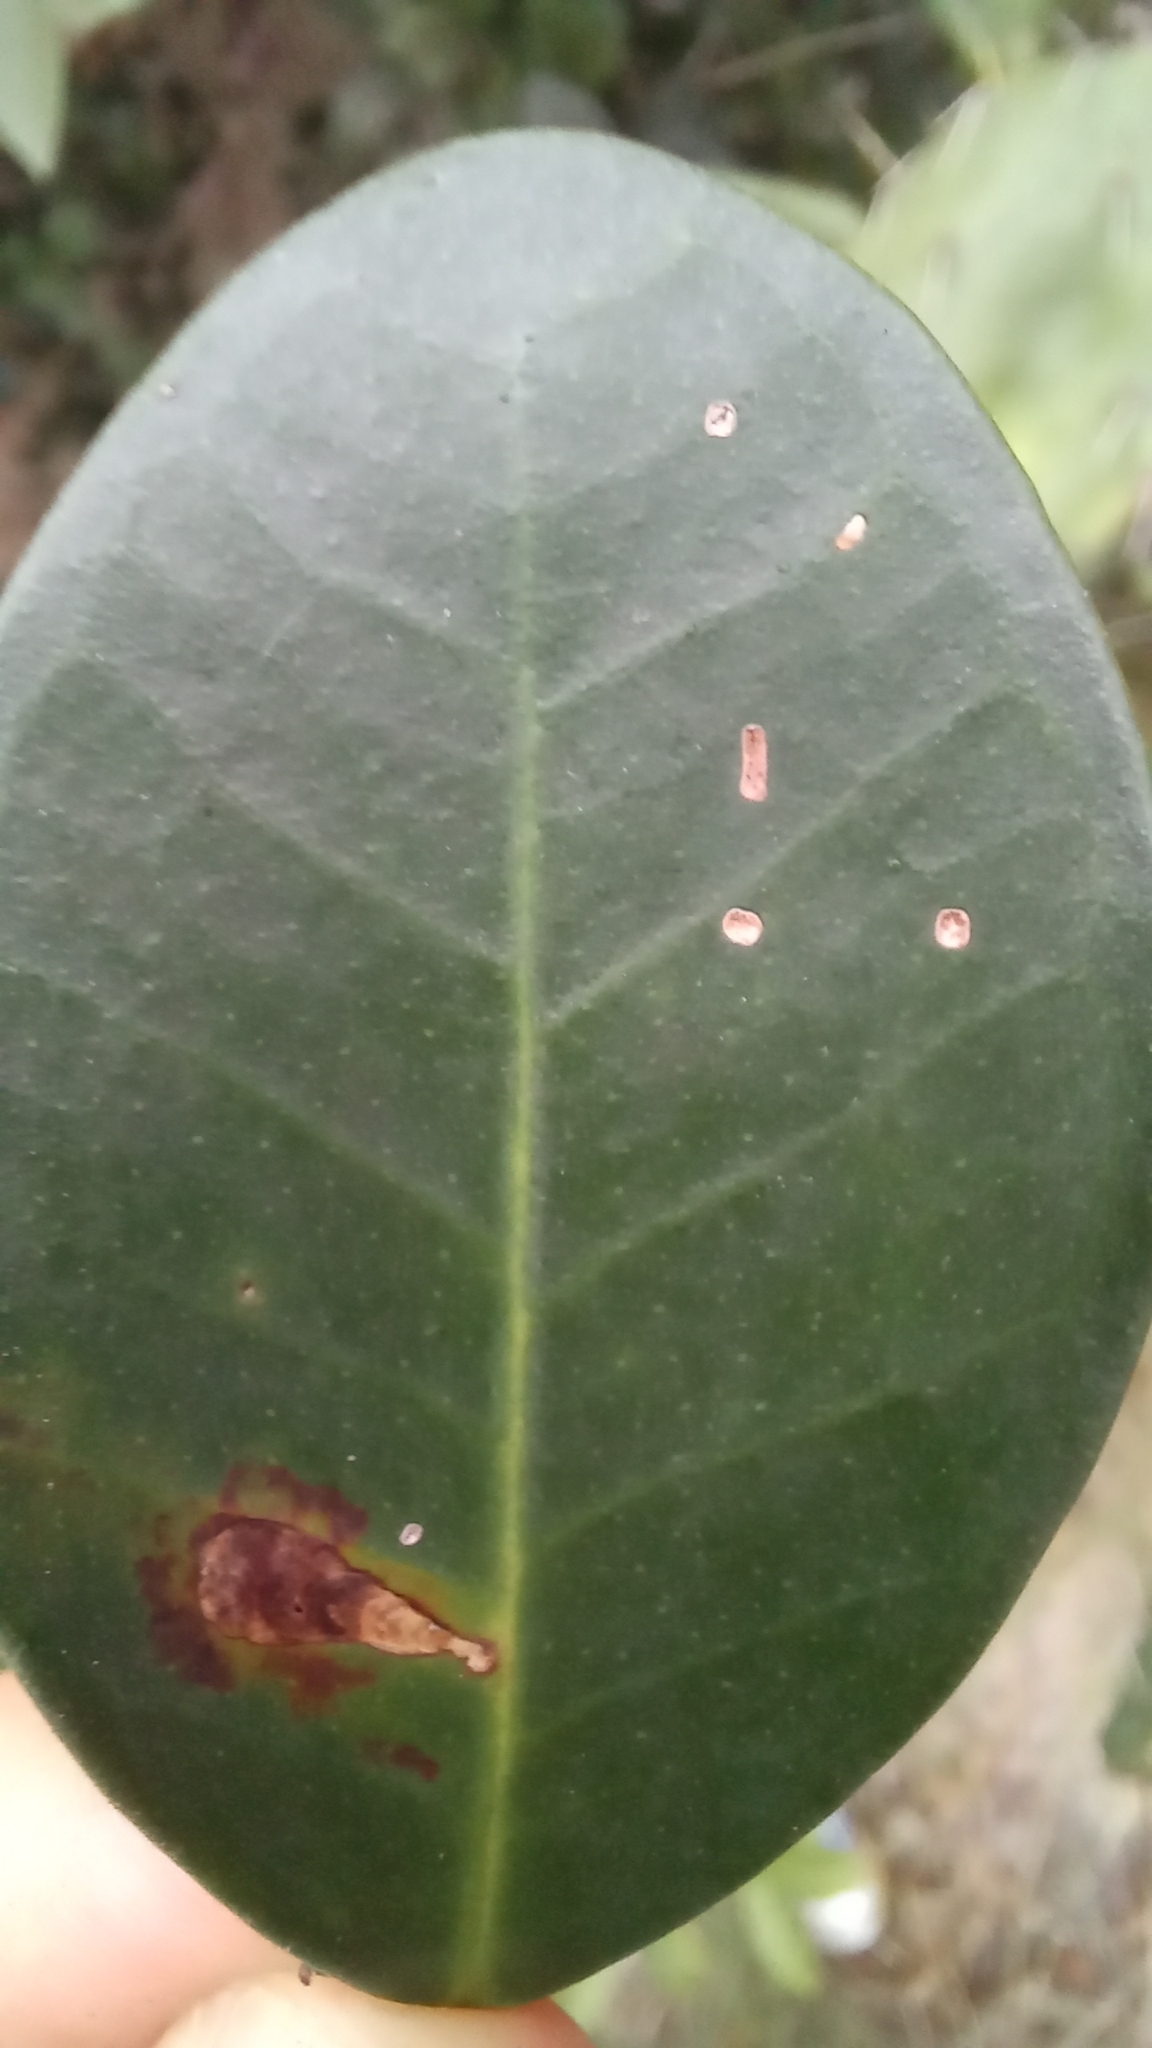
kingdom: Plantae
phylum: Tracheophyta
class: Magnoliopsida
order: Myrtales
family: Myrtaceae
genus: Eugenia
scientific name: Eugenia catharinae
